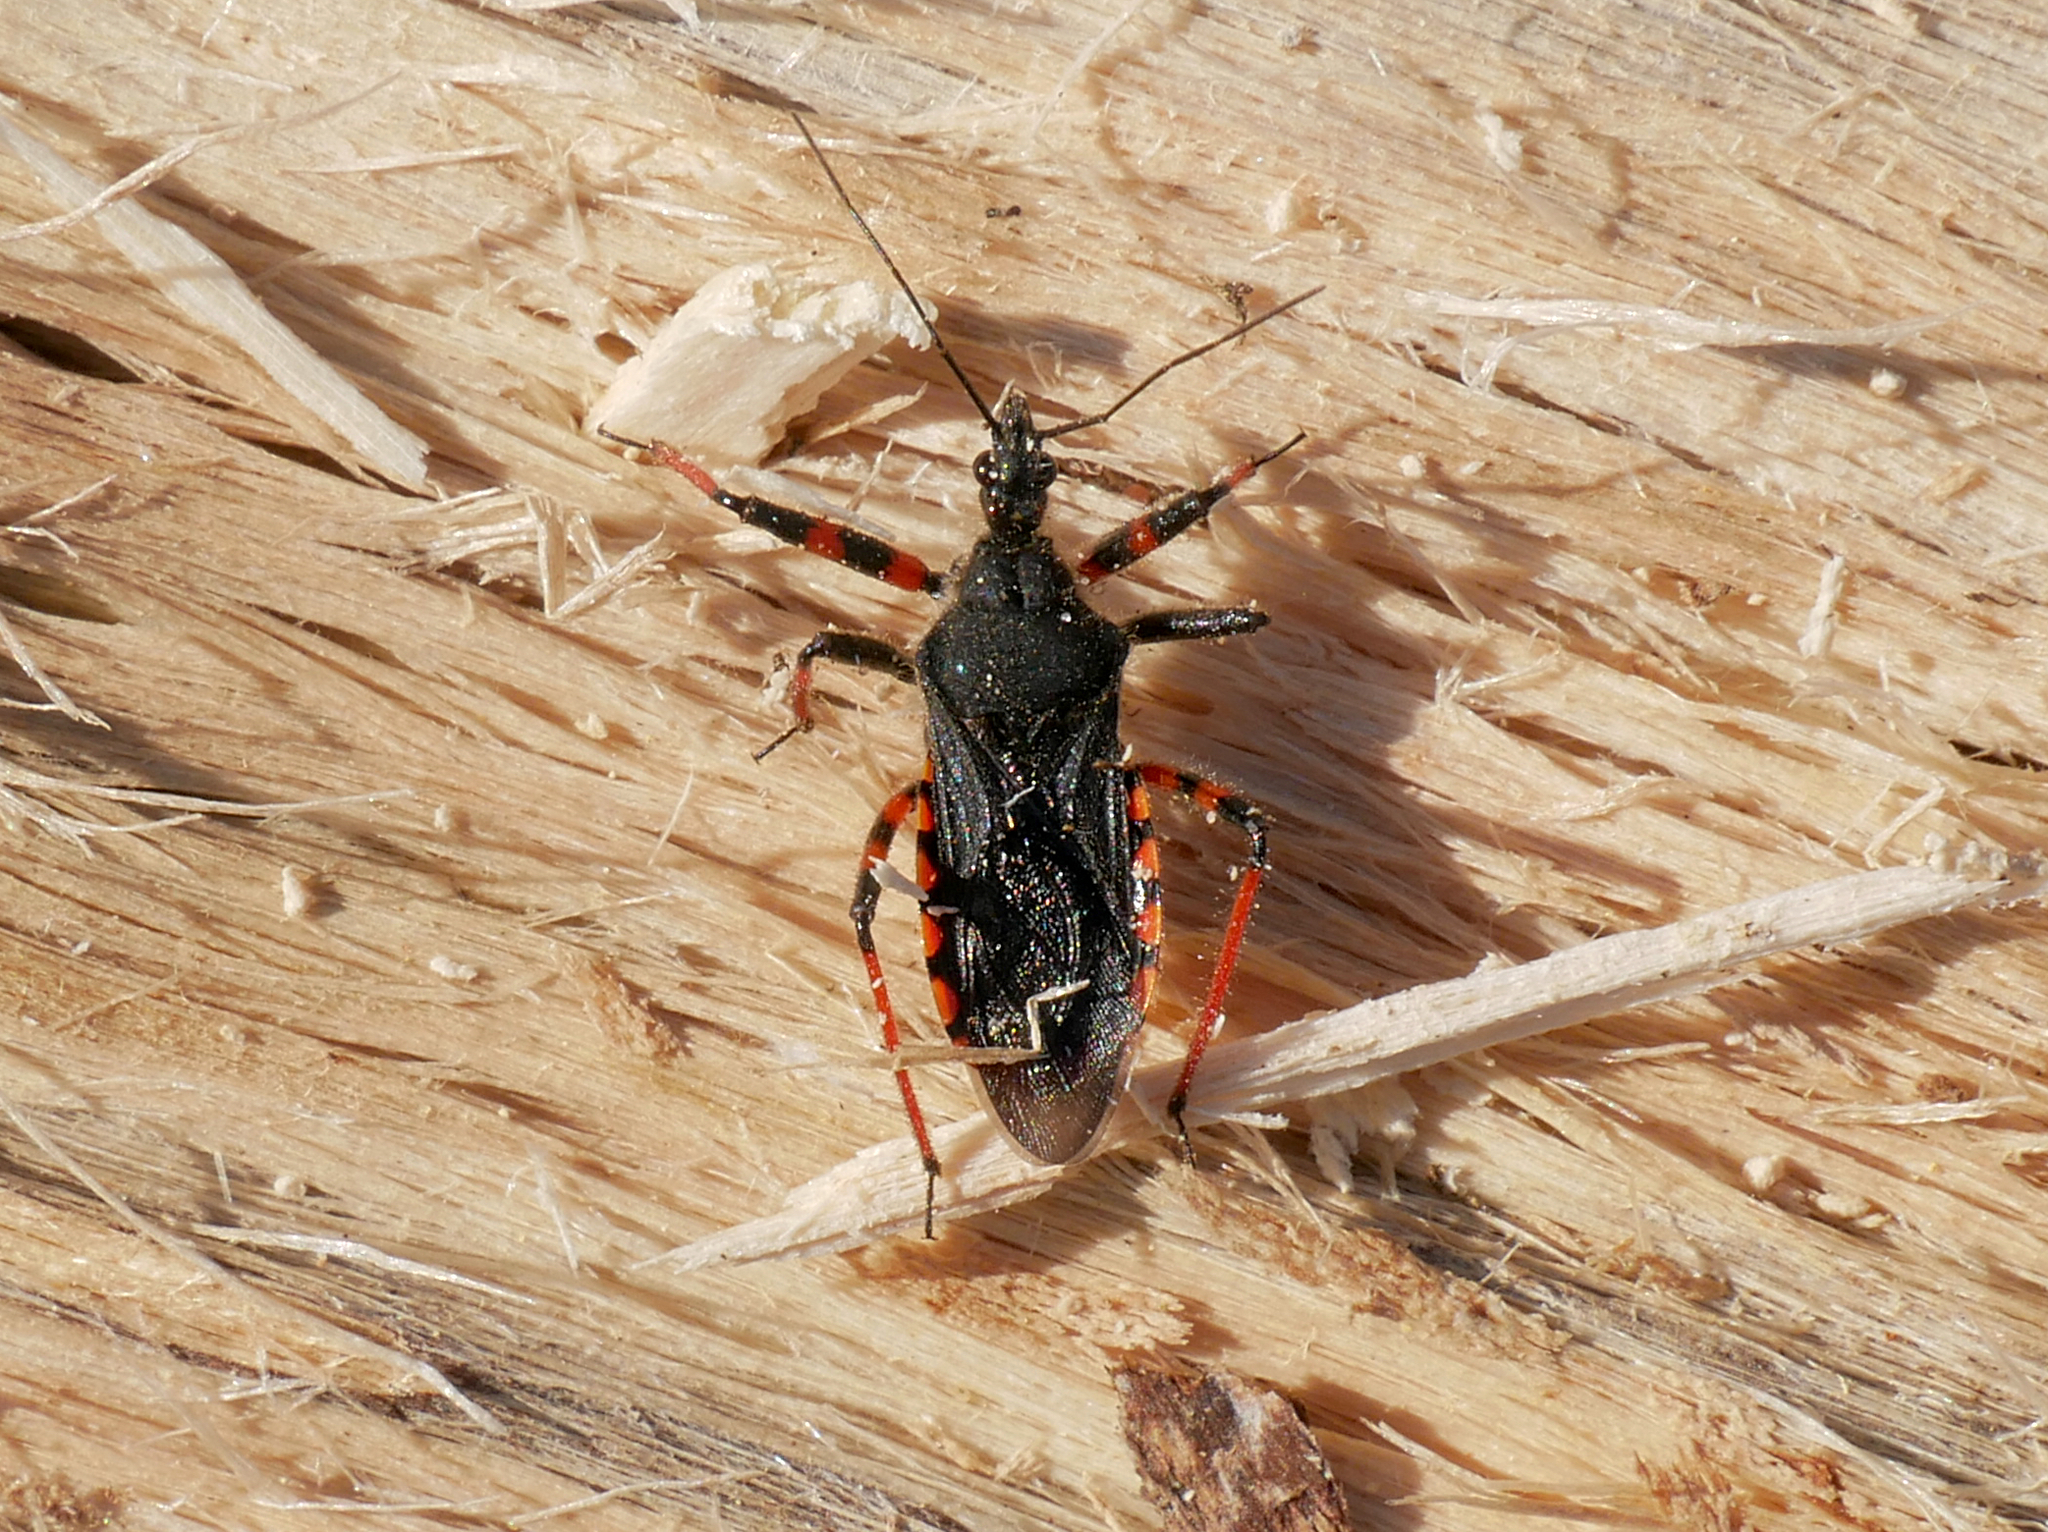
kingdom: Animalia
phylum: Arthropoda
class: Insecta
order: Hemiptera
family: Reduviidae
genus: Rhynocoris
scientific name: Rhynocoris annulatus
